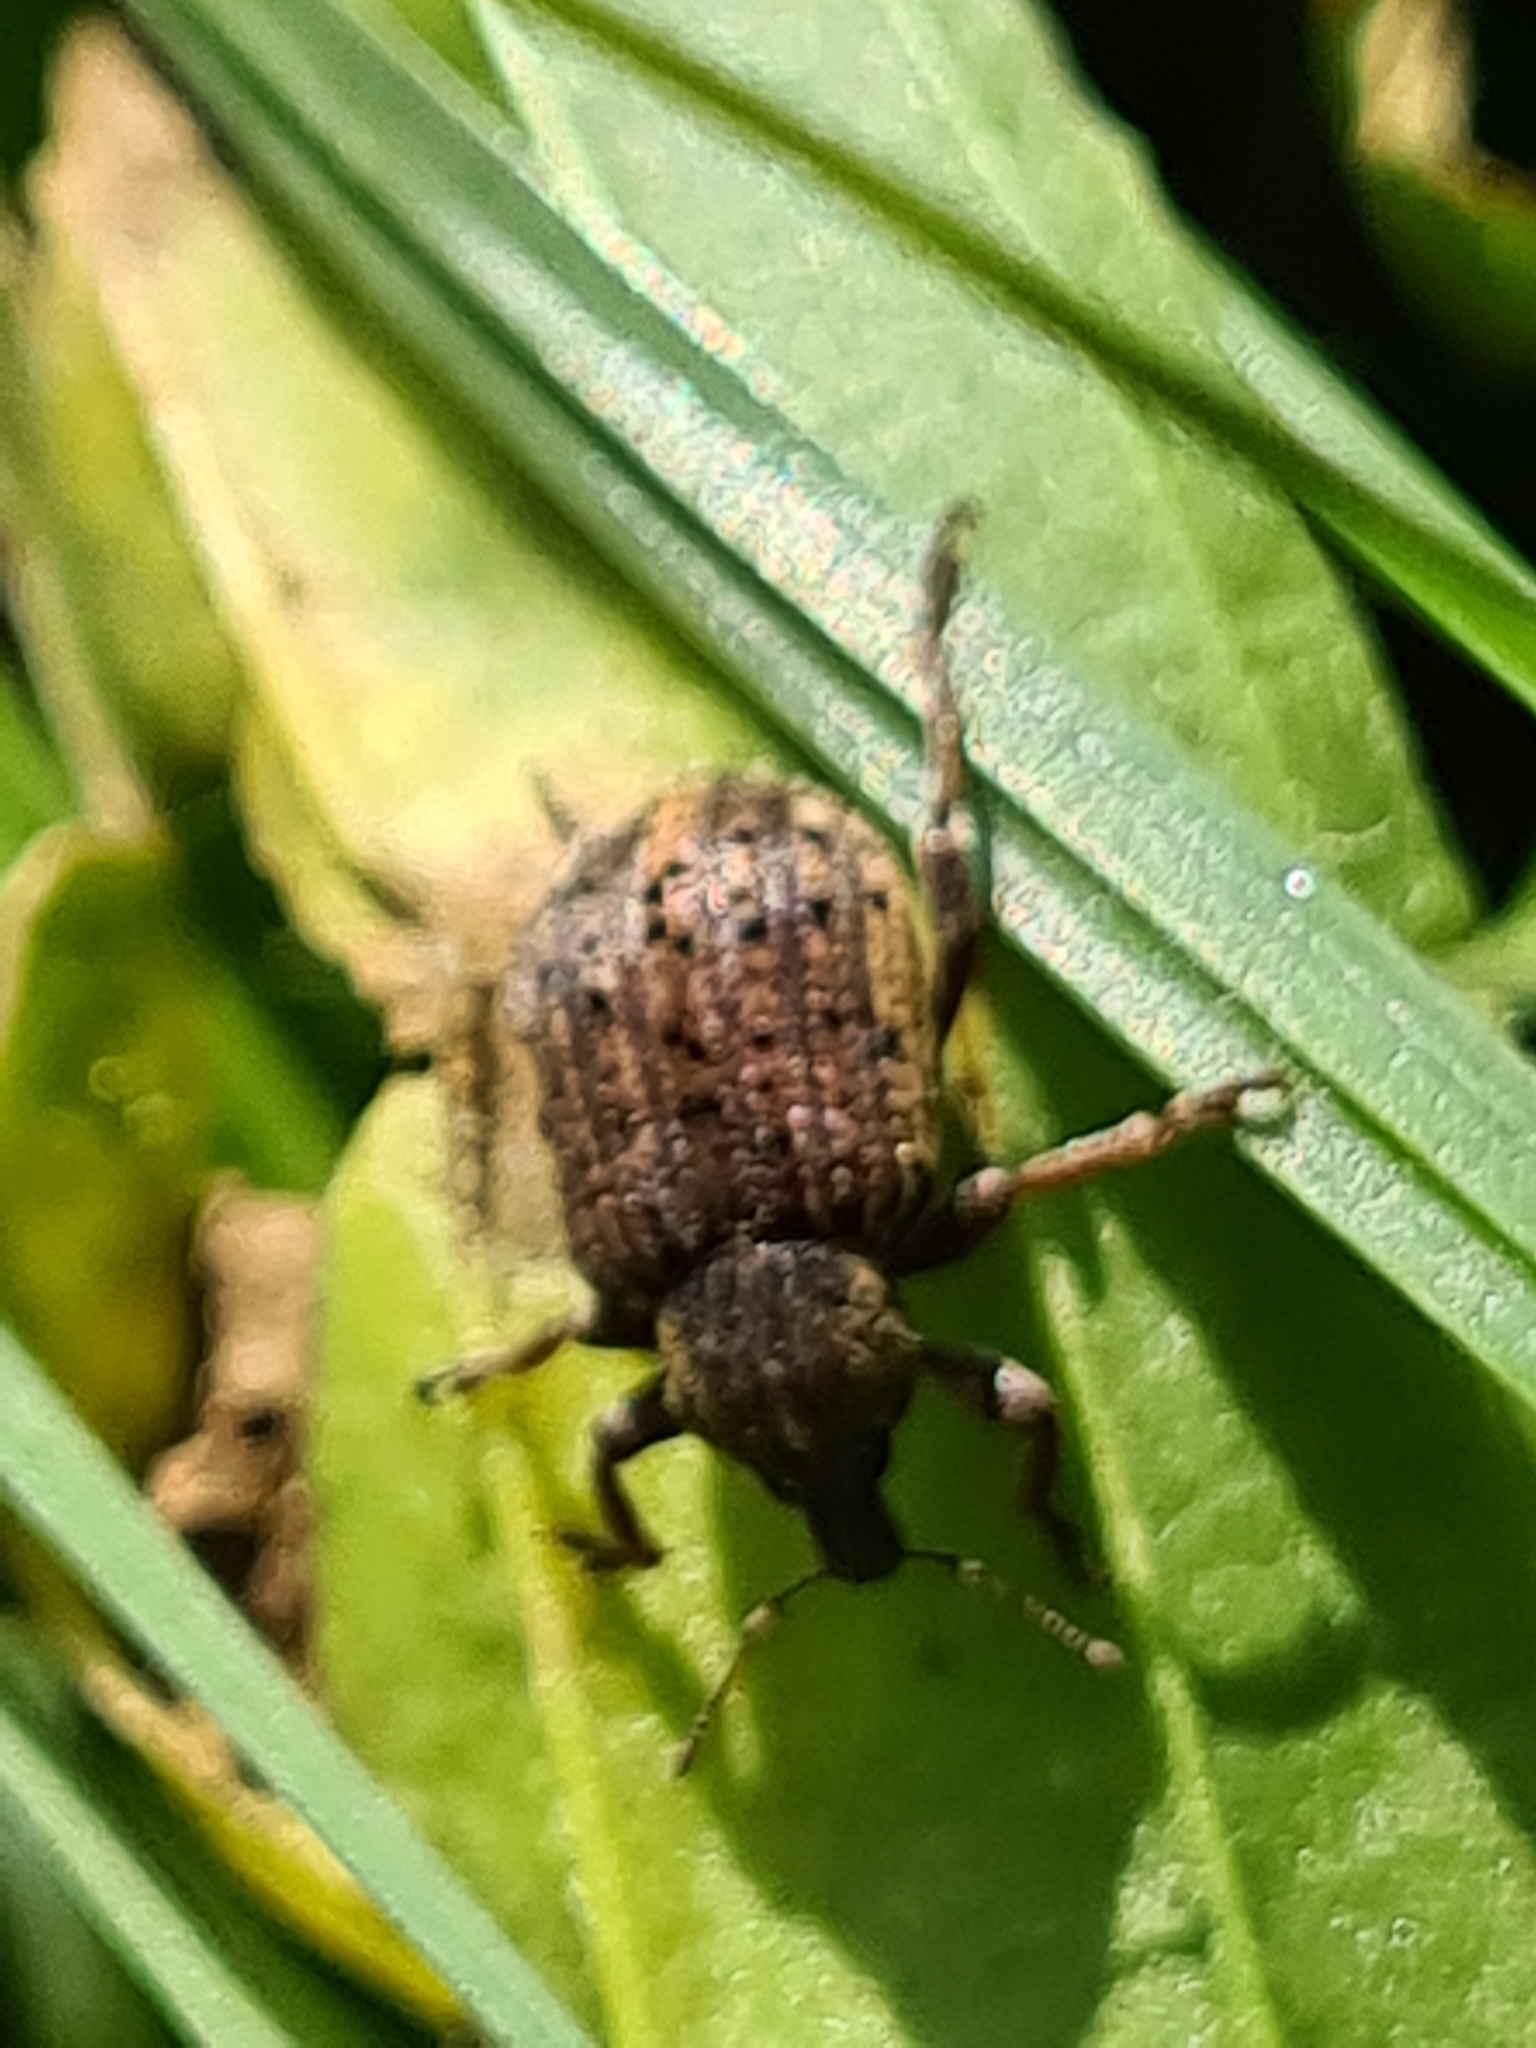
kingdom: Animalia
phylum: Arthropoda
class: Insecta
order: Coleoptera
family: Curculionidae
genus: Brachypera
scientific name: Brachypera zoilus
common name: Clover leaf weevil
